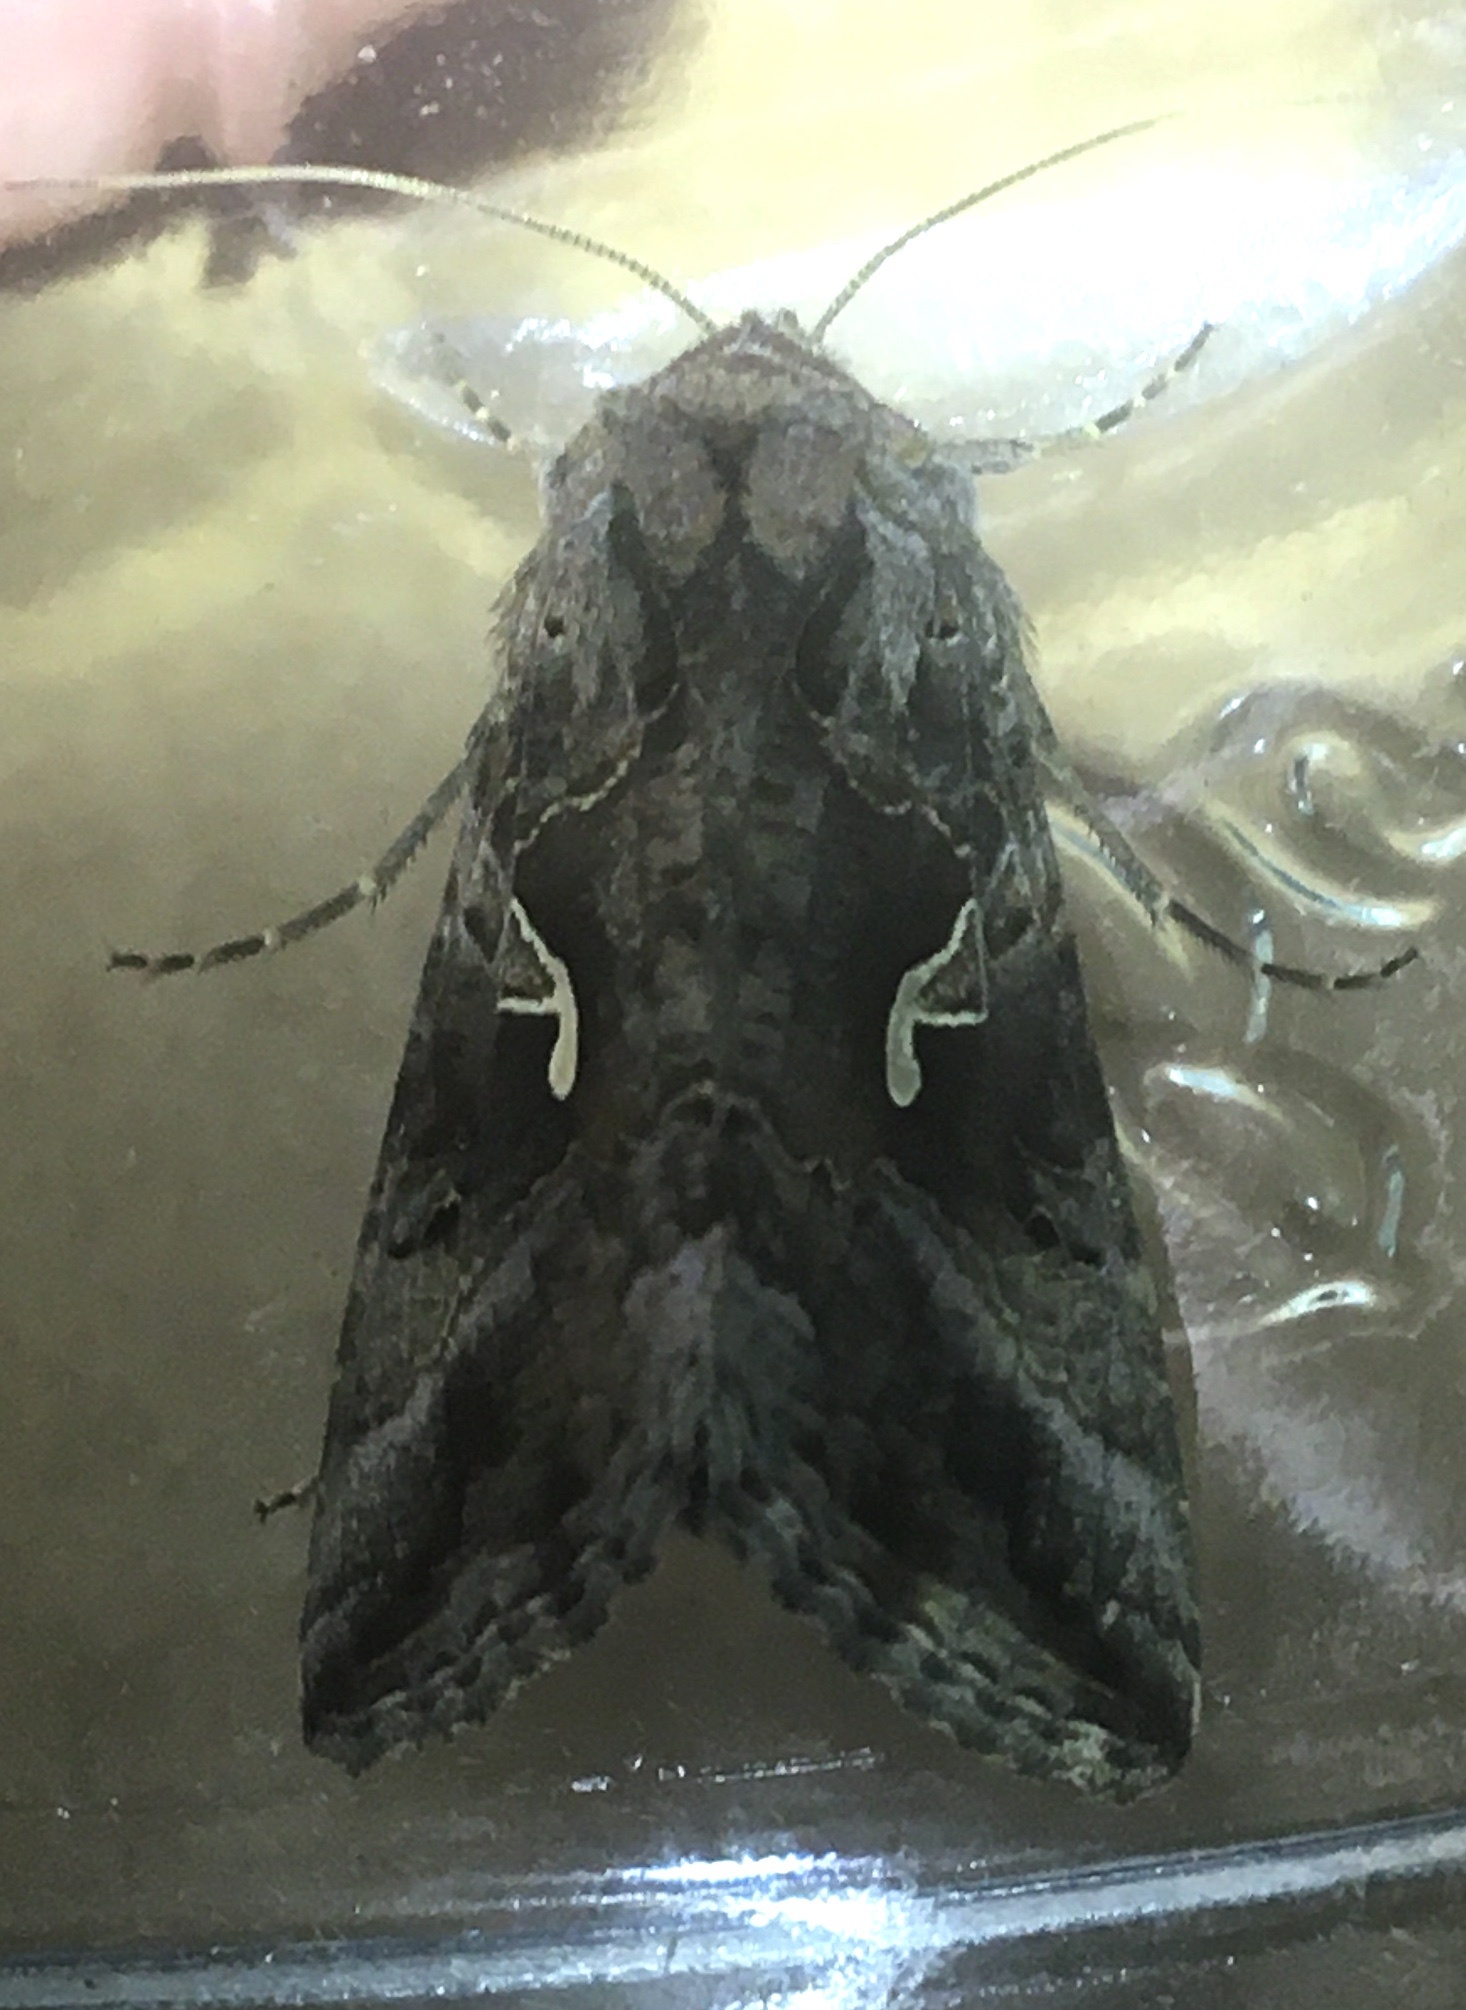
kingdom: Animalia
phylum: Arthropoda
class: Insecta
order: Lepidoptera
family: Noctuidae
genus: Autographa
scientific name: Autographa gamma
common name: Silver y
